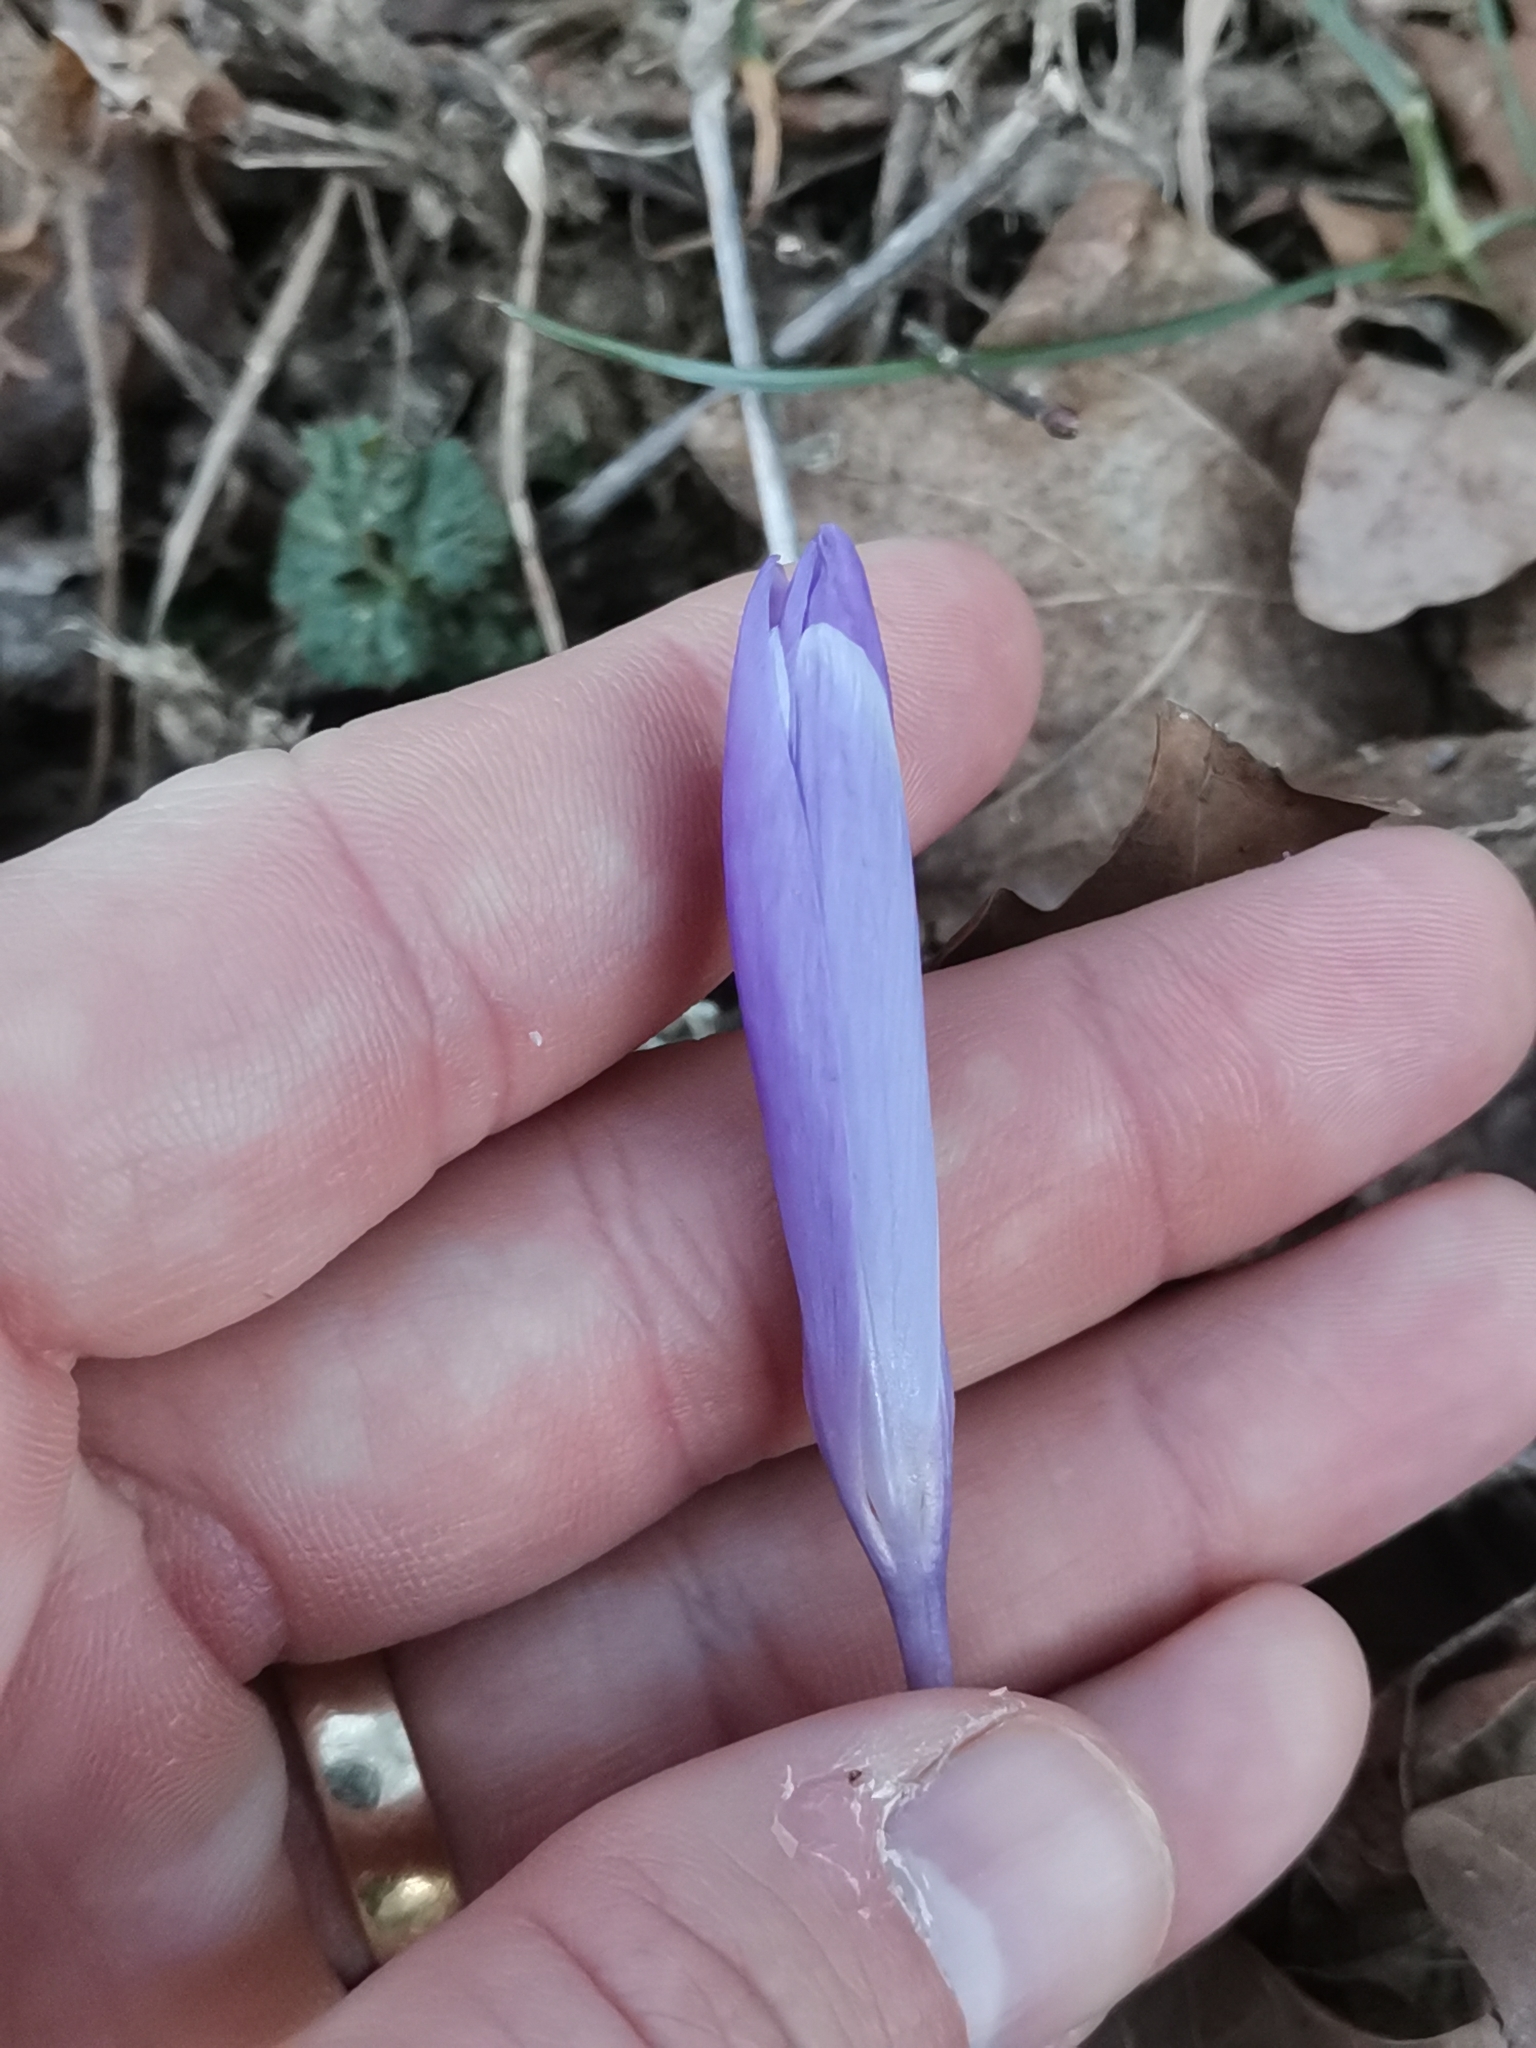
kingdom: Plantae
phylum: Tracheophyta
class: Liliopsida
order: Asparagales
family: Iridaceae
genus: Crocus
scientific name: Crocus neapolitanus
